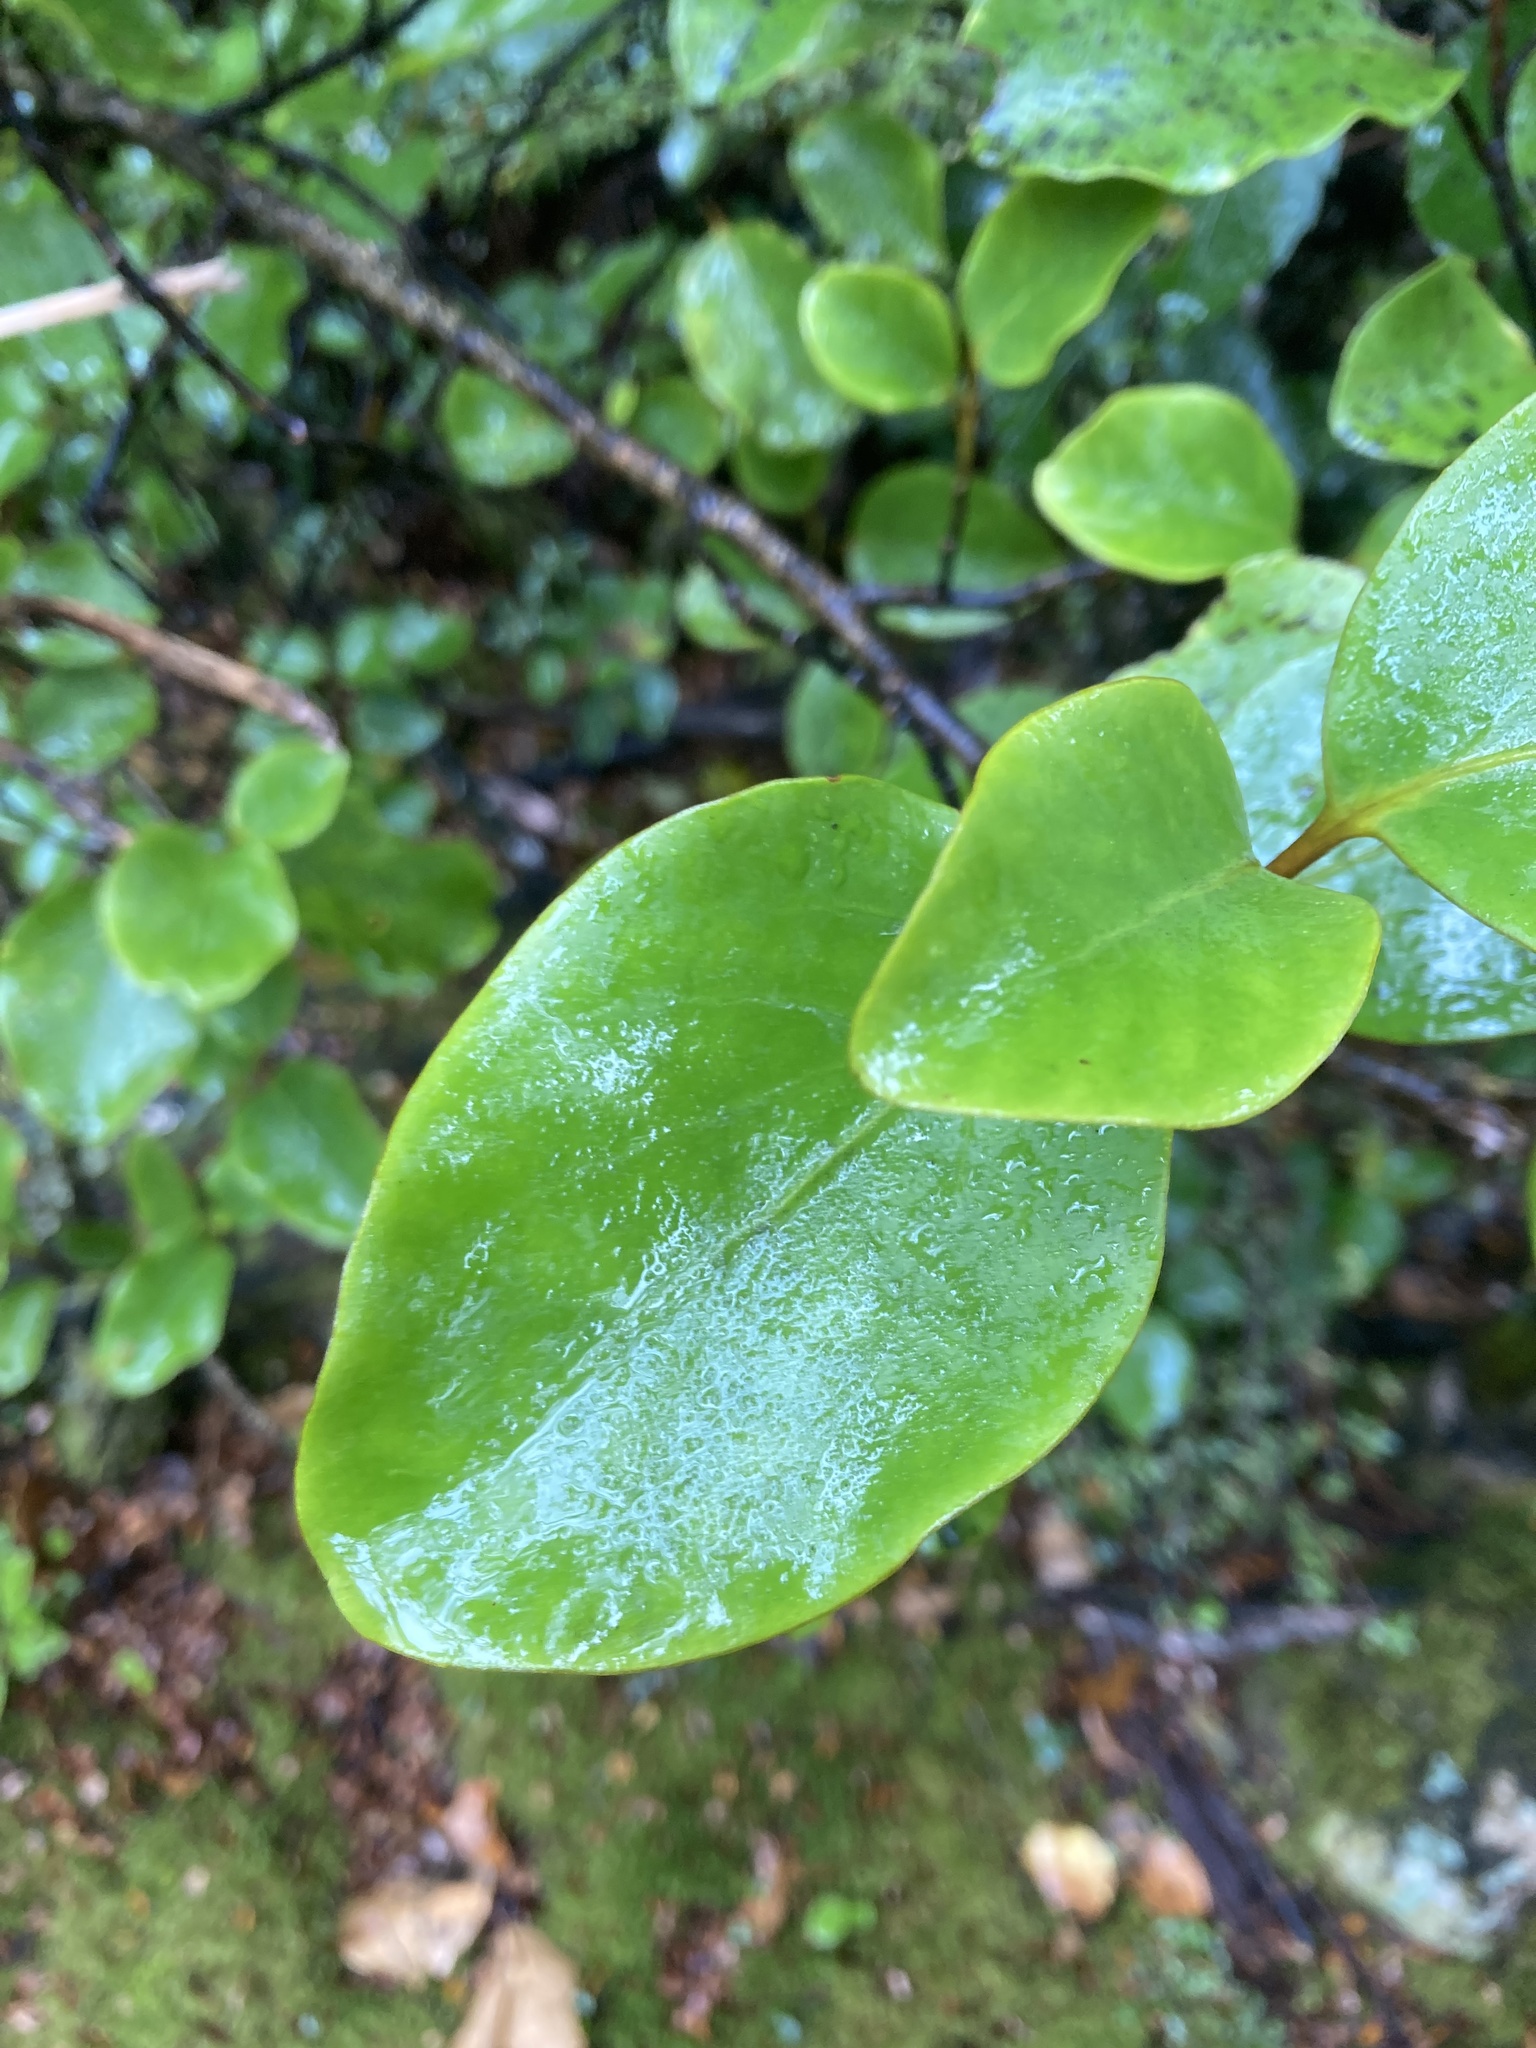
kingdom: Plantae
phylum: Tracheophyta
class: Magnoliopsida
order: Apiales
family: Griseliniaceae
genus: Griselinia
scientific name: Griselinia littoralis
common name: New zealand broadleaf
